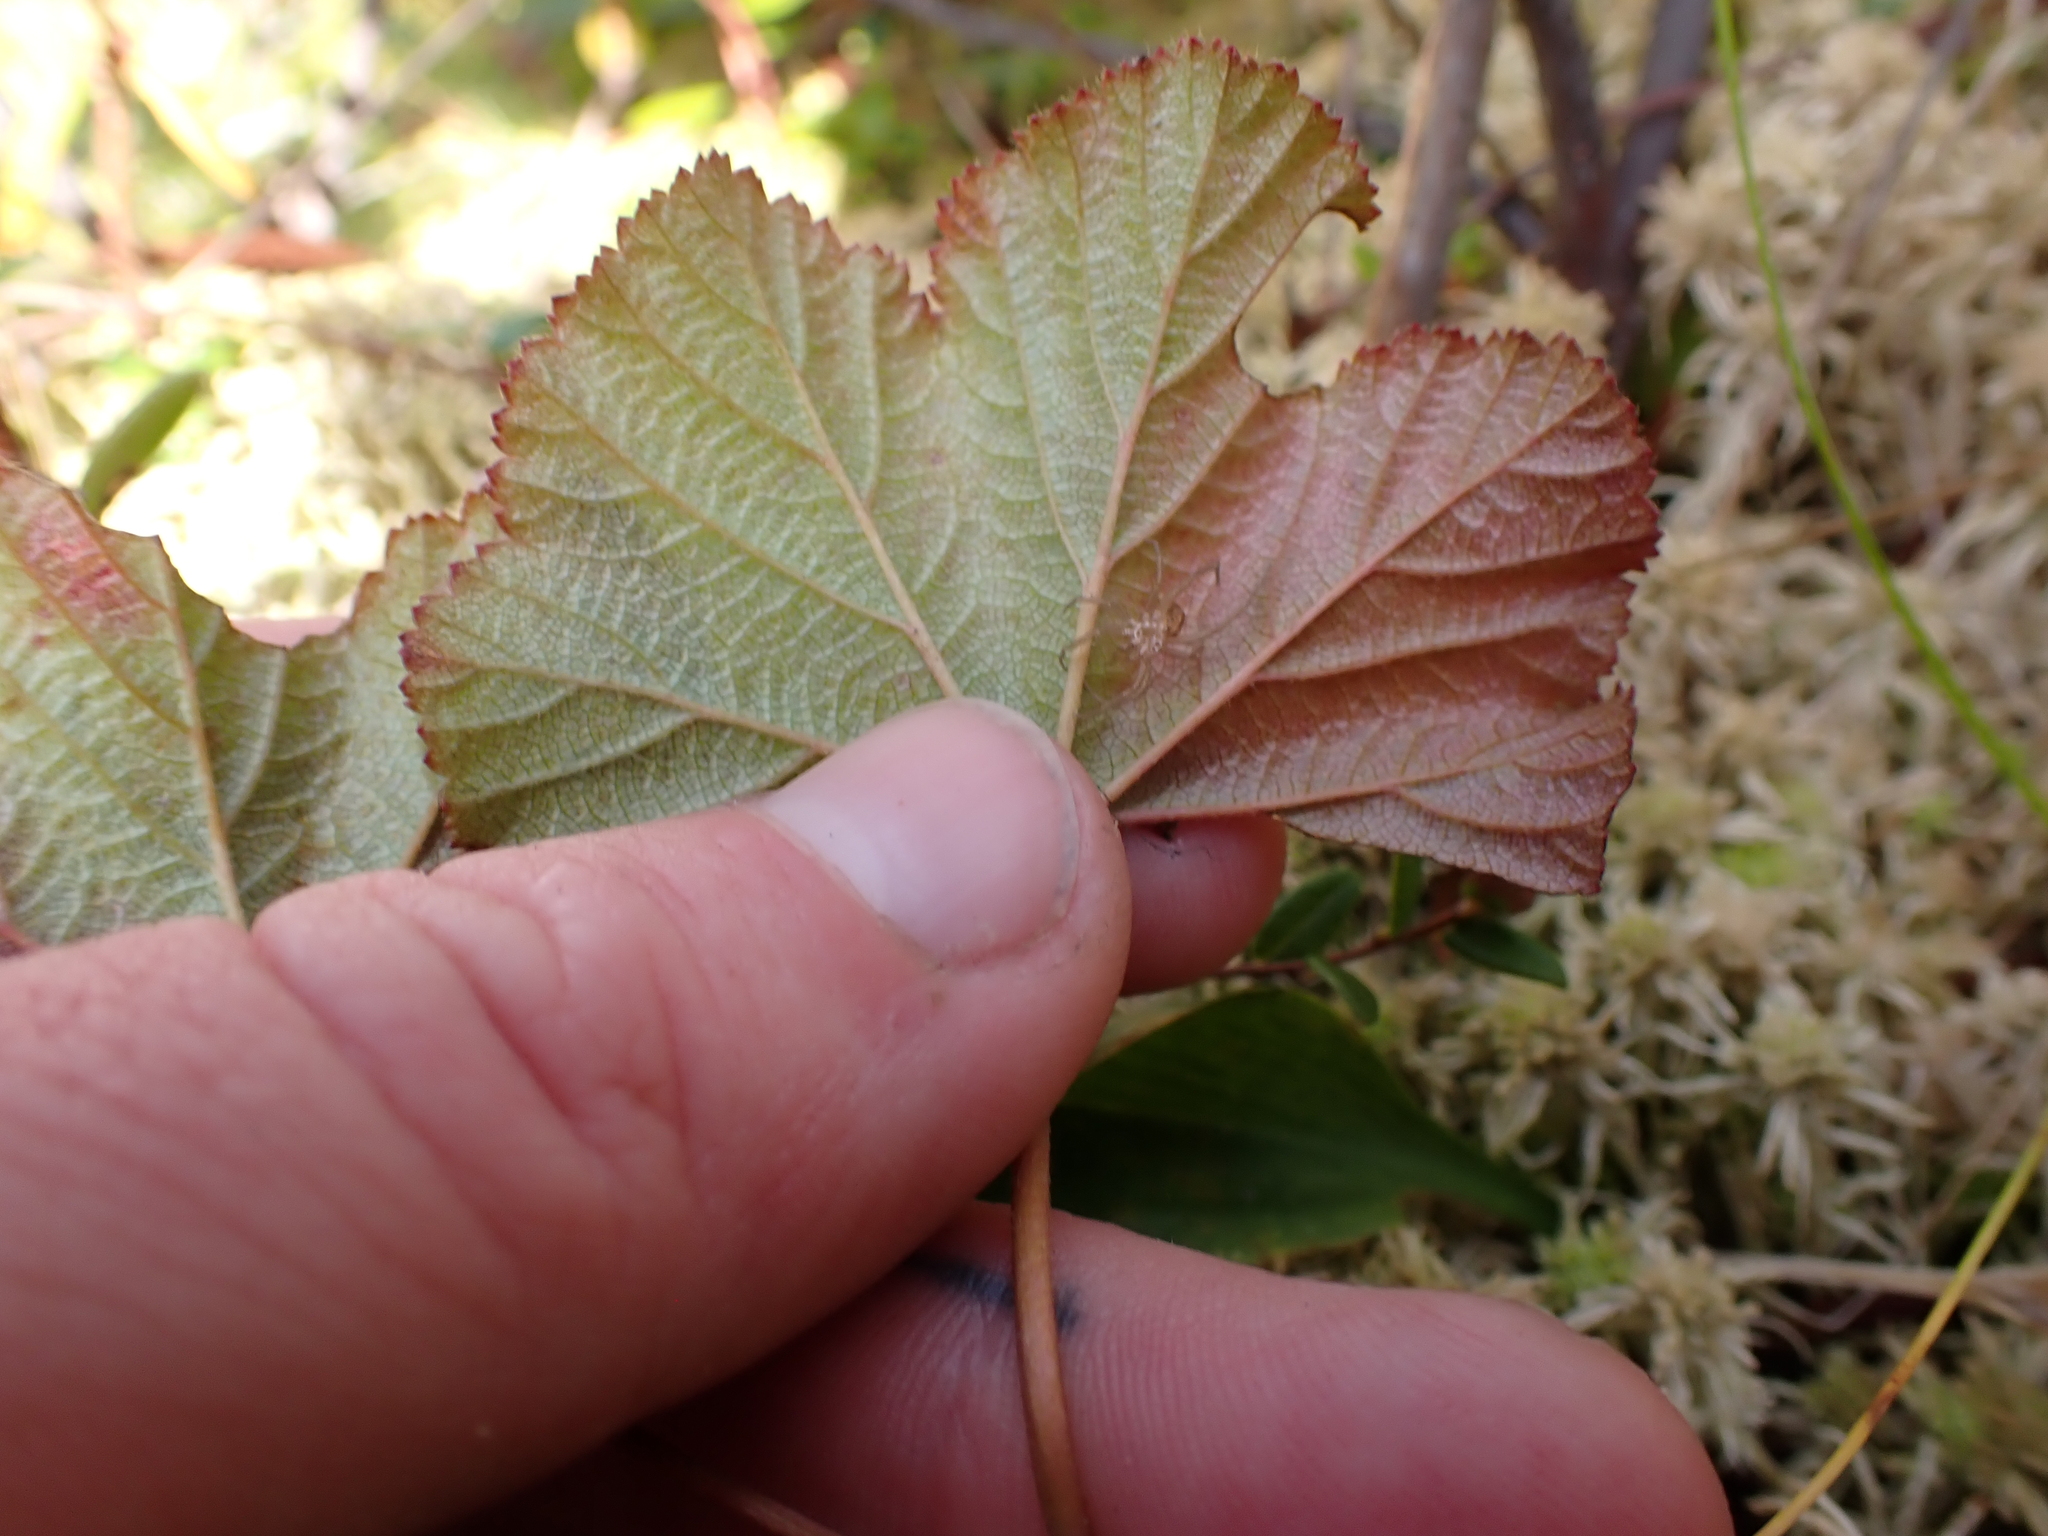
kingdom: Plantae
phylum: Tracheophyta
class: Magnoliopsida
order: Rosales
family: Rosaceae
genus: Rubus
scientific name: Rubus chamaemorus
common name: Cloudberry
